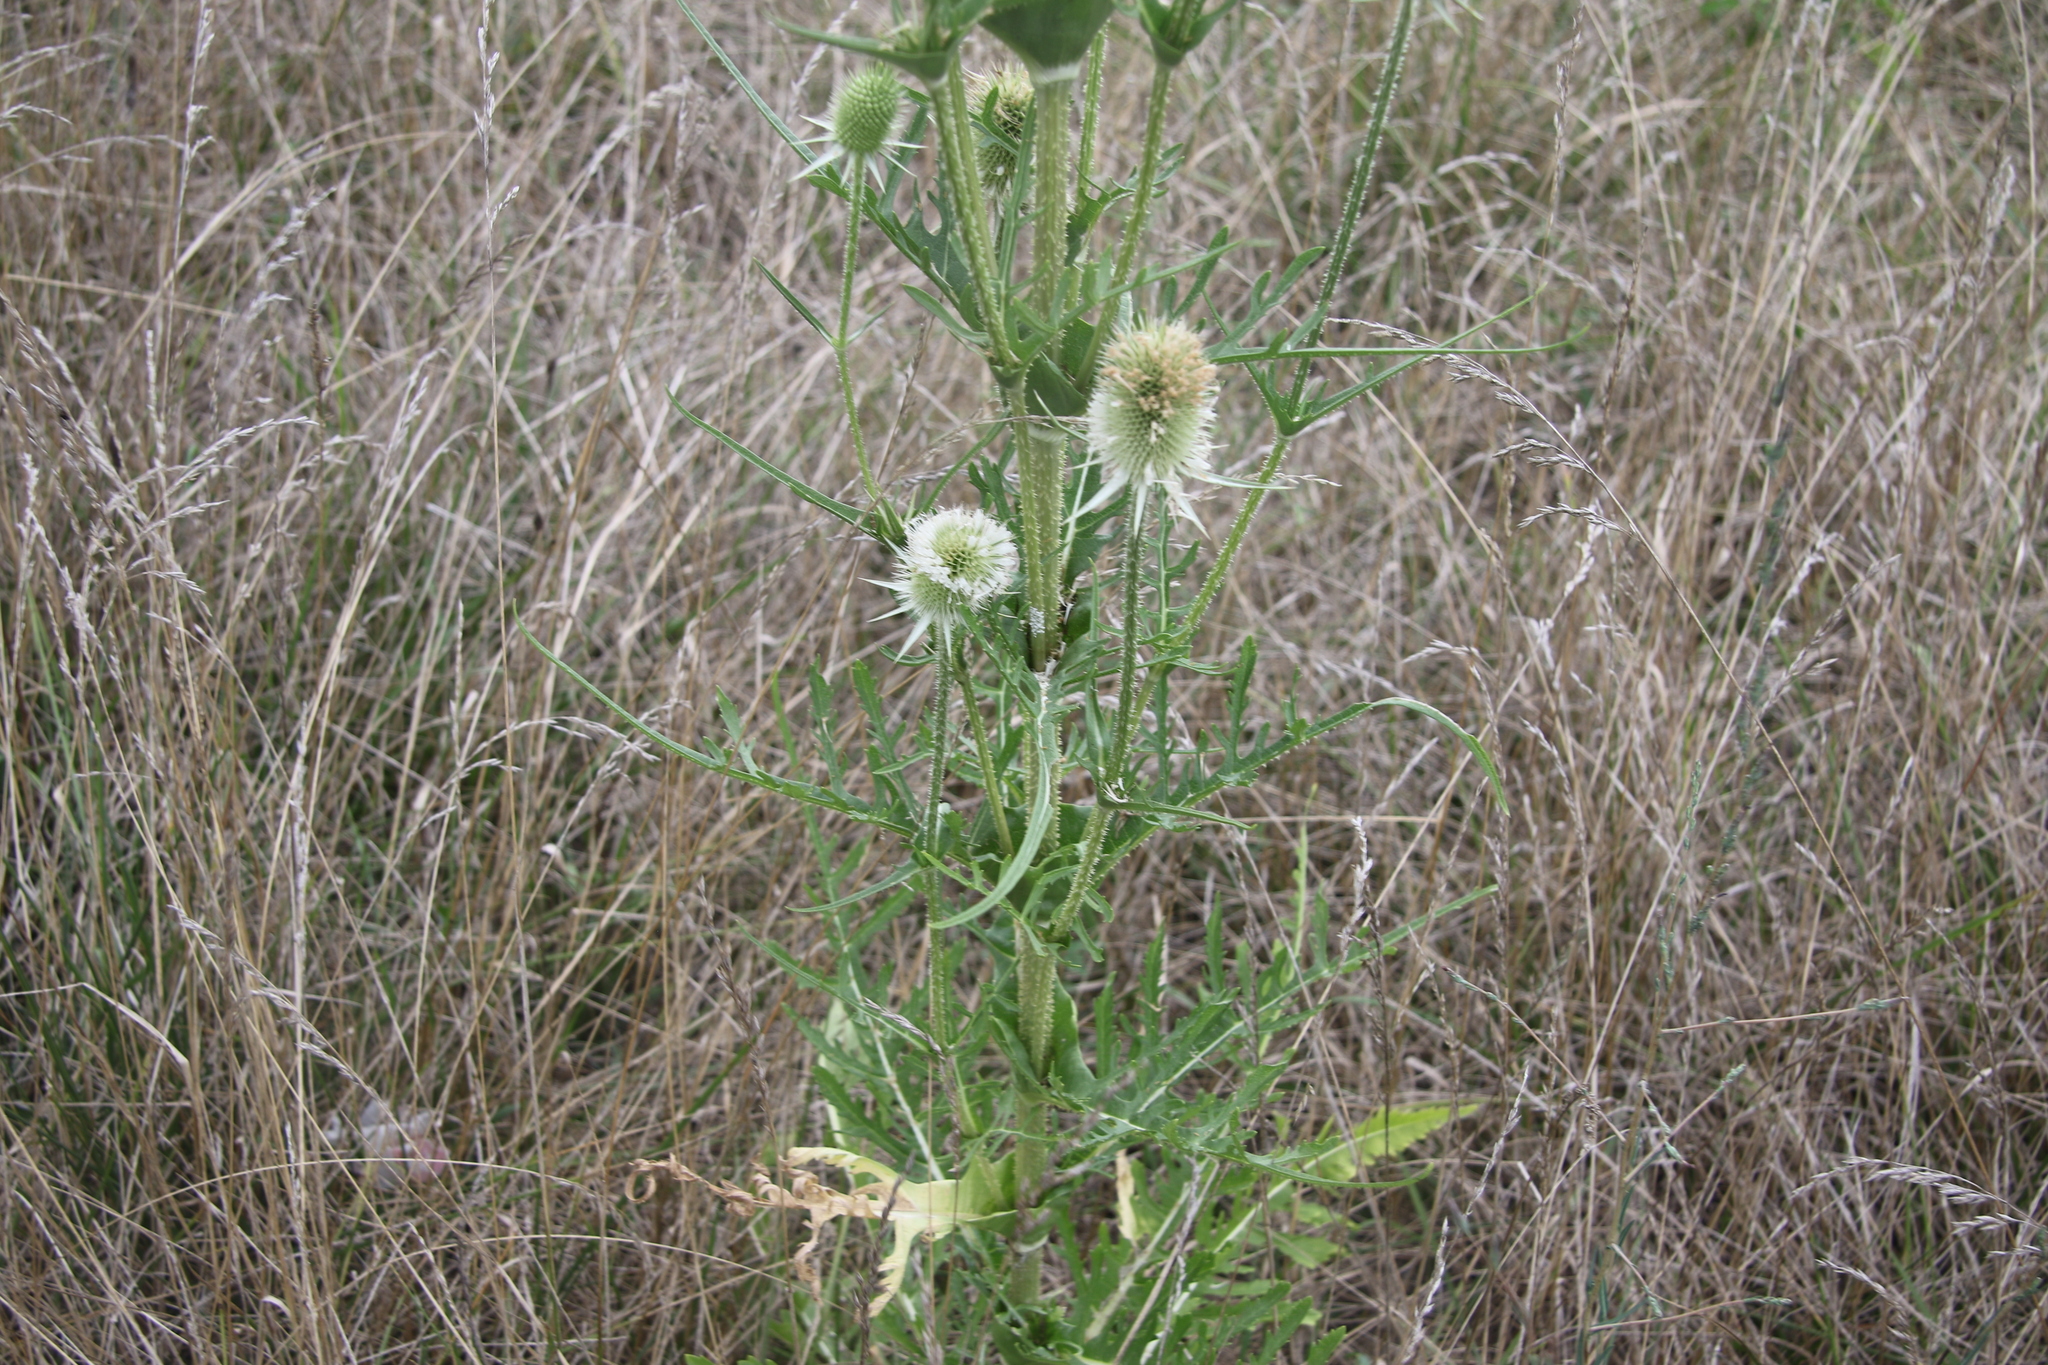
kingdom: Plantae
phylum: Tracheophyta
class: Magnoliopsida
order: Dipsacales
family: Caprifoliaceae
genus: Dipsacus
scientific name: Dipsacus laciniatus
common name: Cut-leaved teasel
